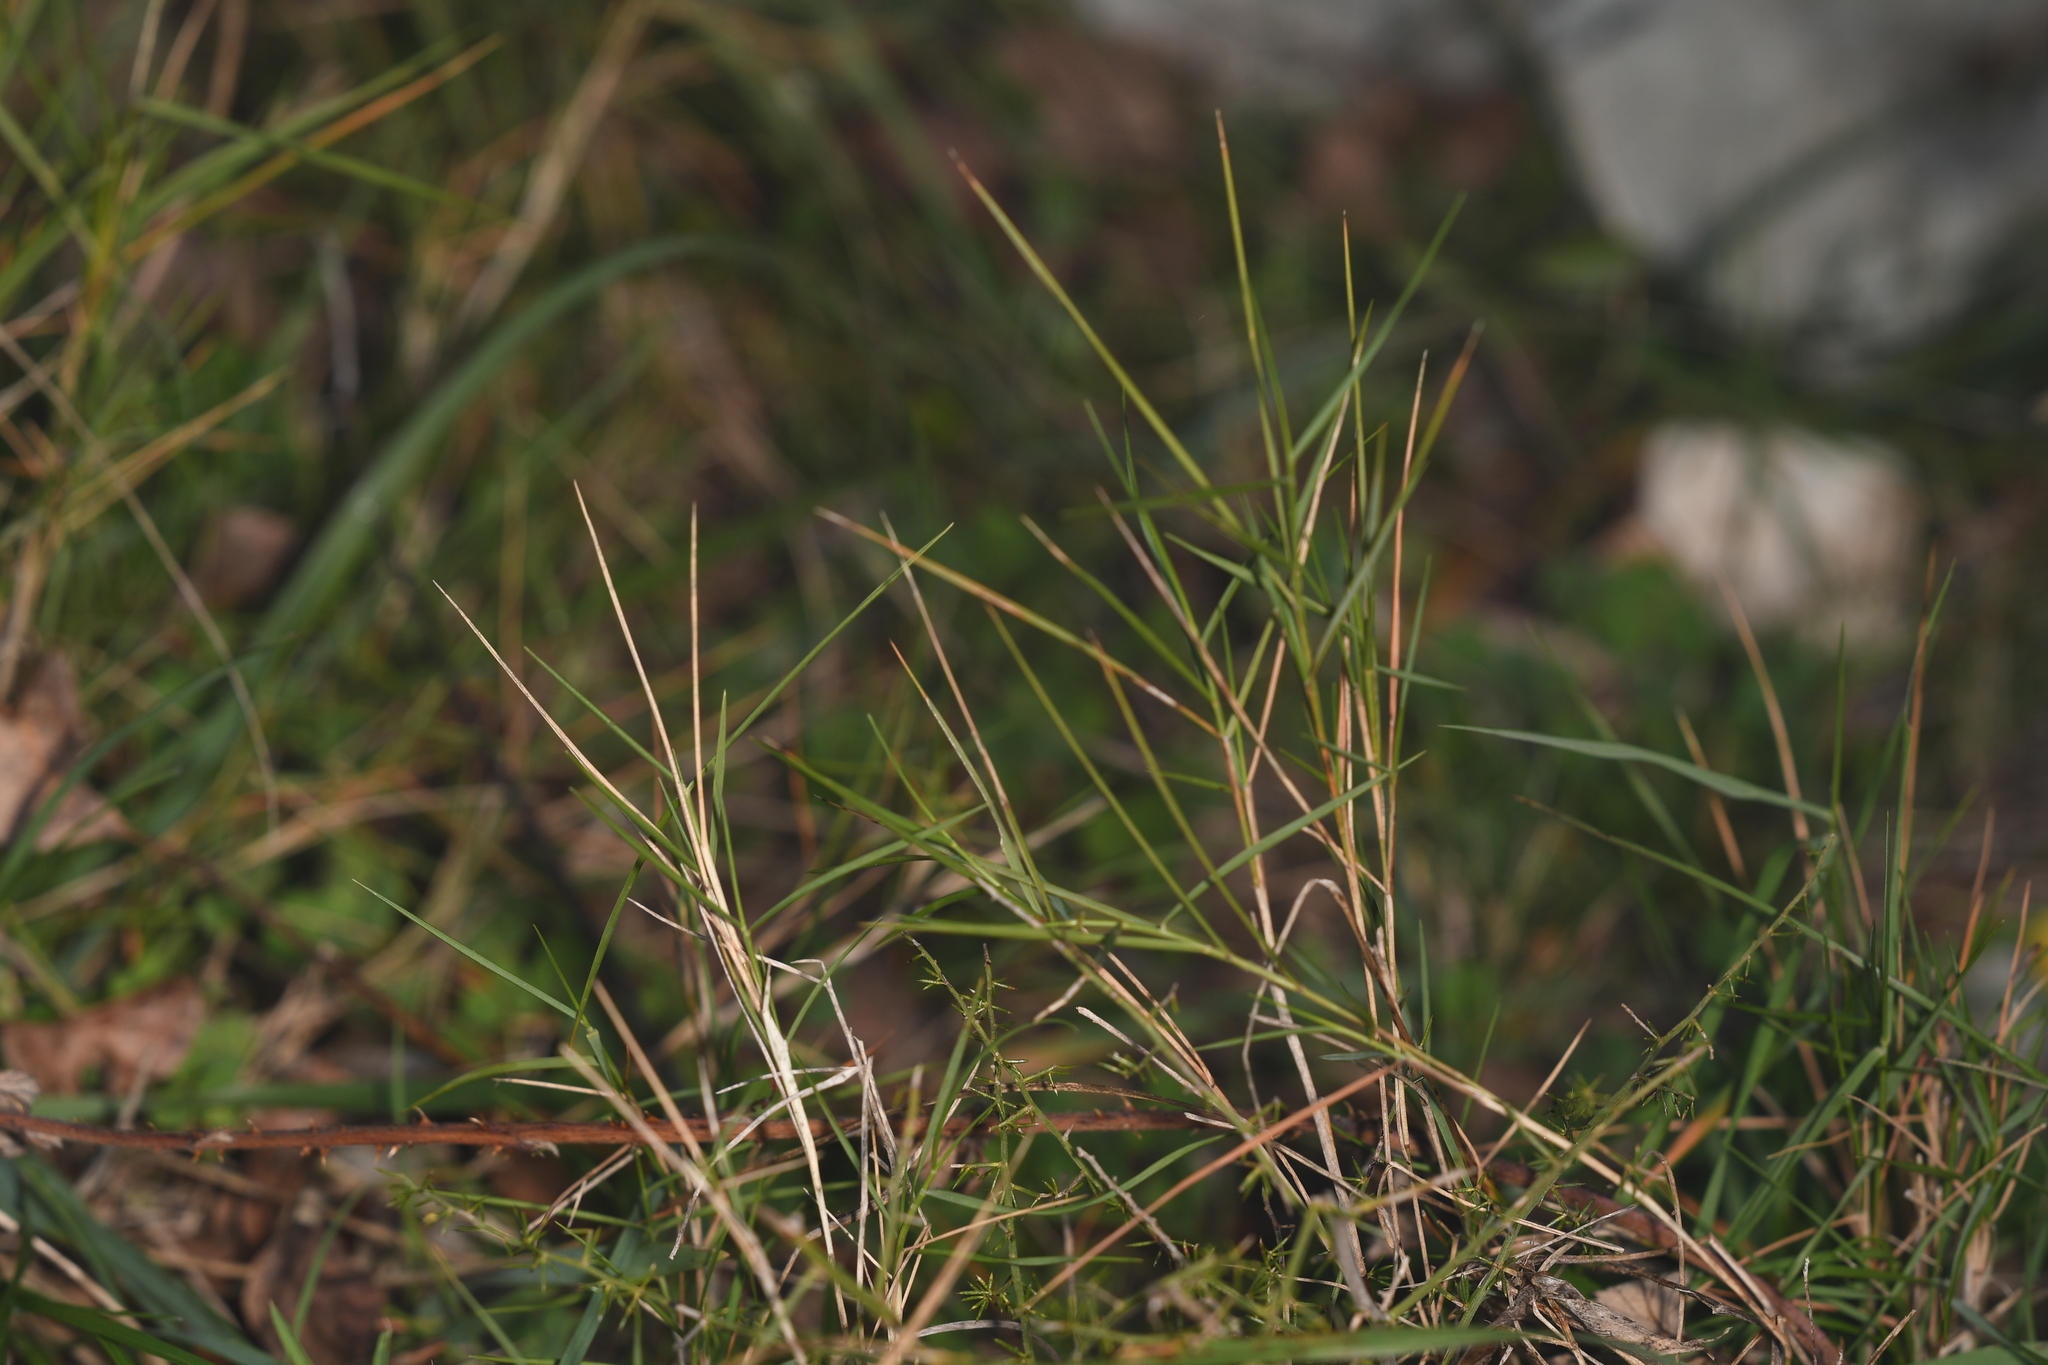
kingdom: Plantae
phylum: Tracheophyta
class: Liliopsida
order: Poales
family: Poaceae
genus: Brachypodium
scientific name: Brachypodium retusum
